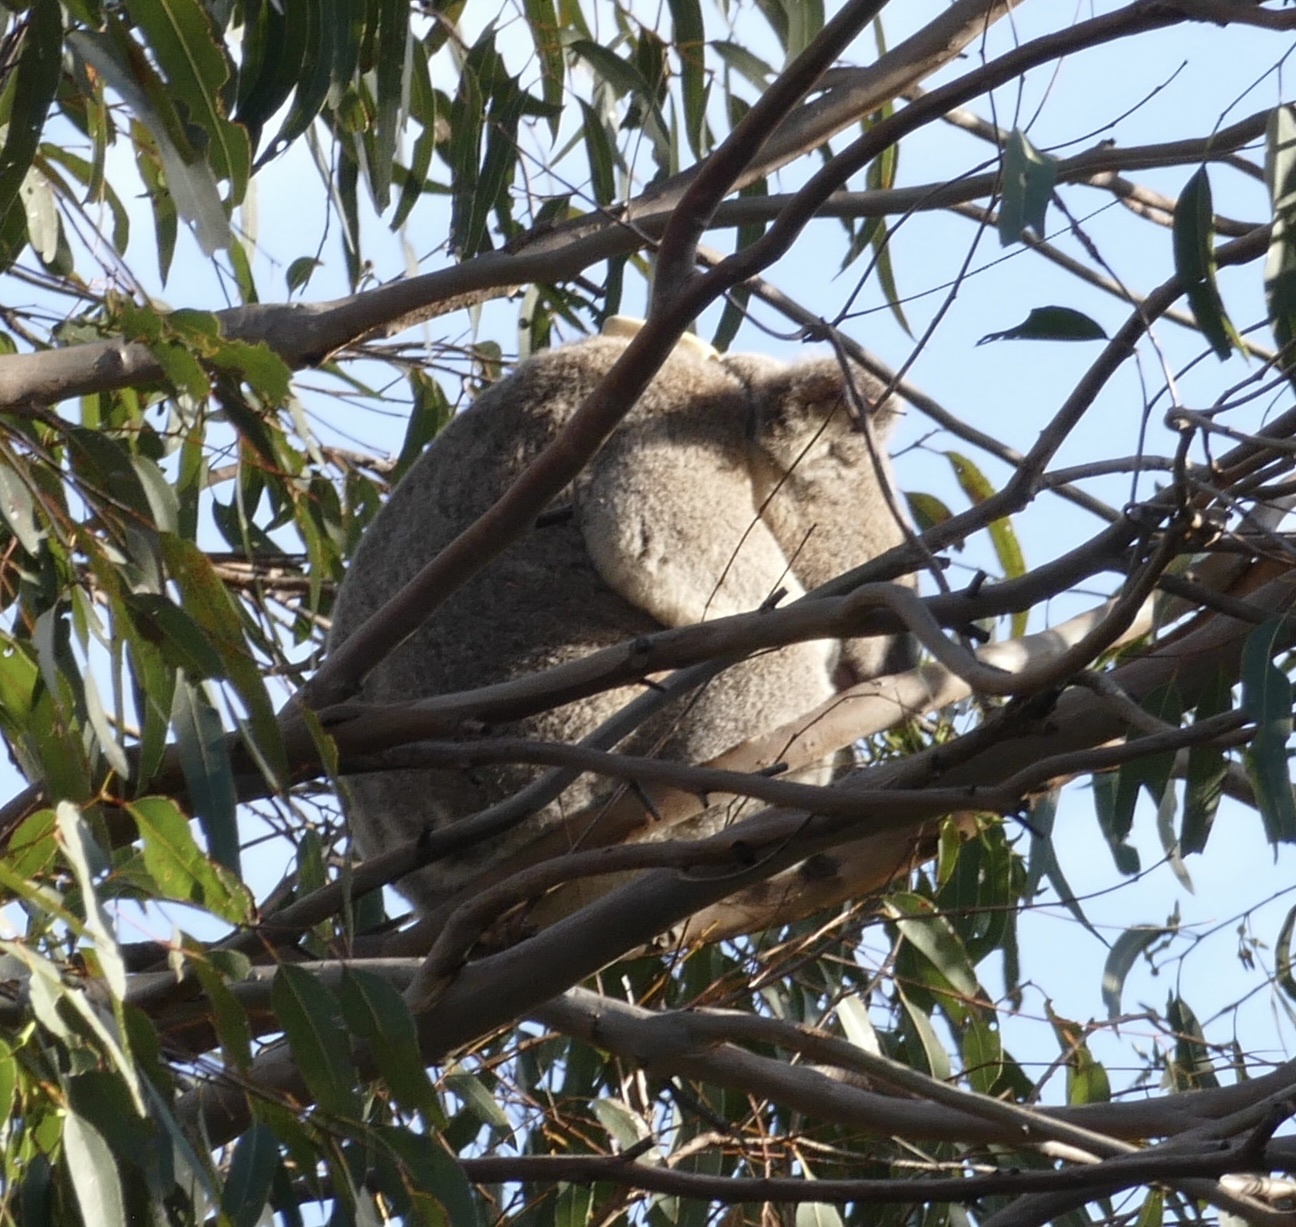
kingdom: Animalia
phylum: Chordata
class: Mammalia
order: Diprotodontia
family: Phascolarctidae
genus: Phascolarctos
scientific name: Phascolarctos cinereus
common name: Koala
